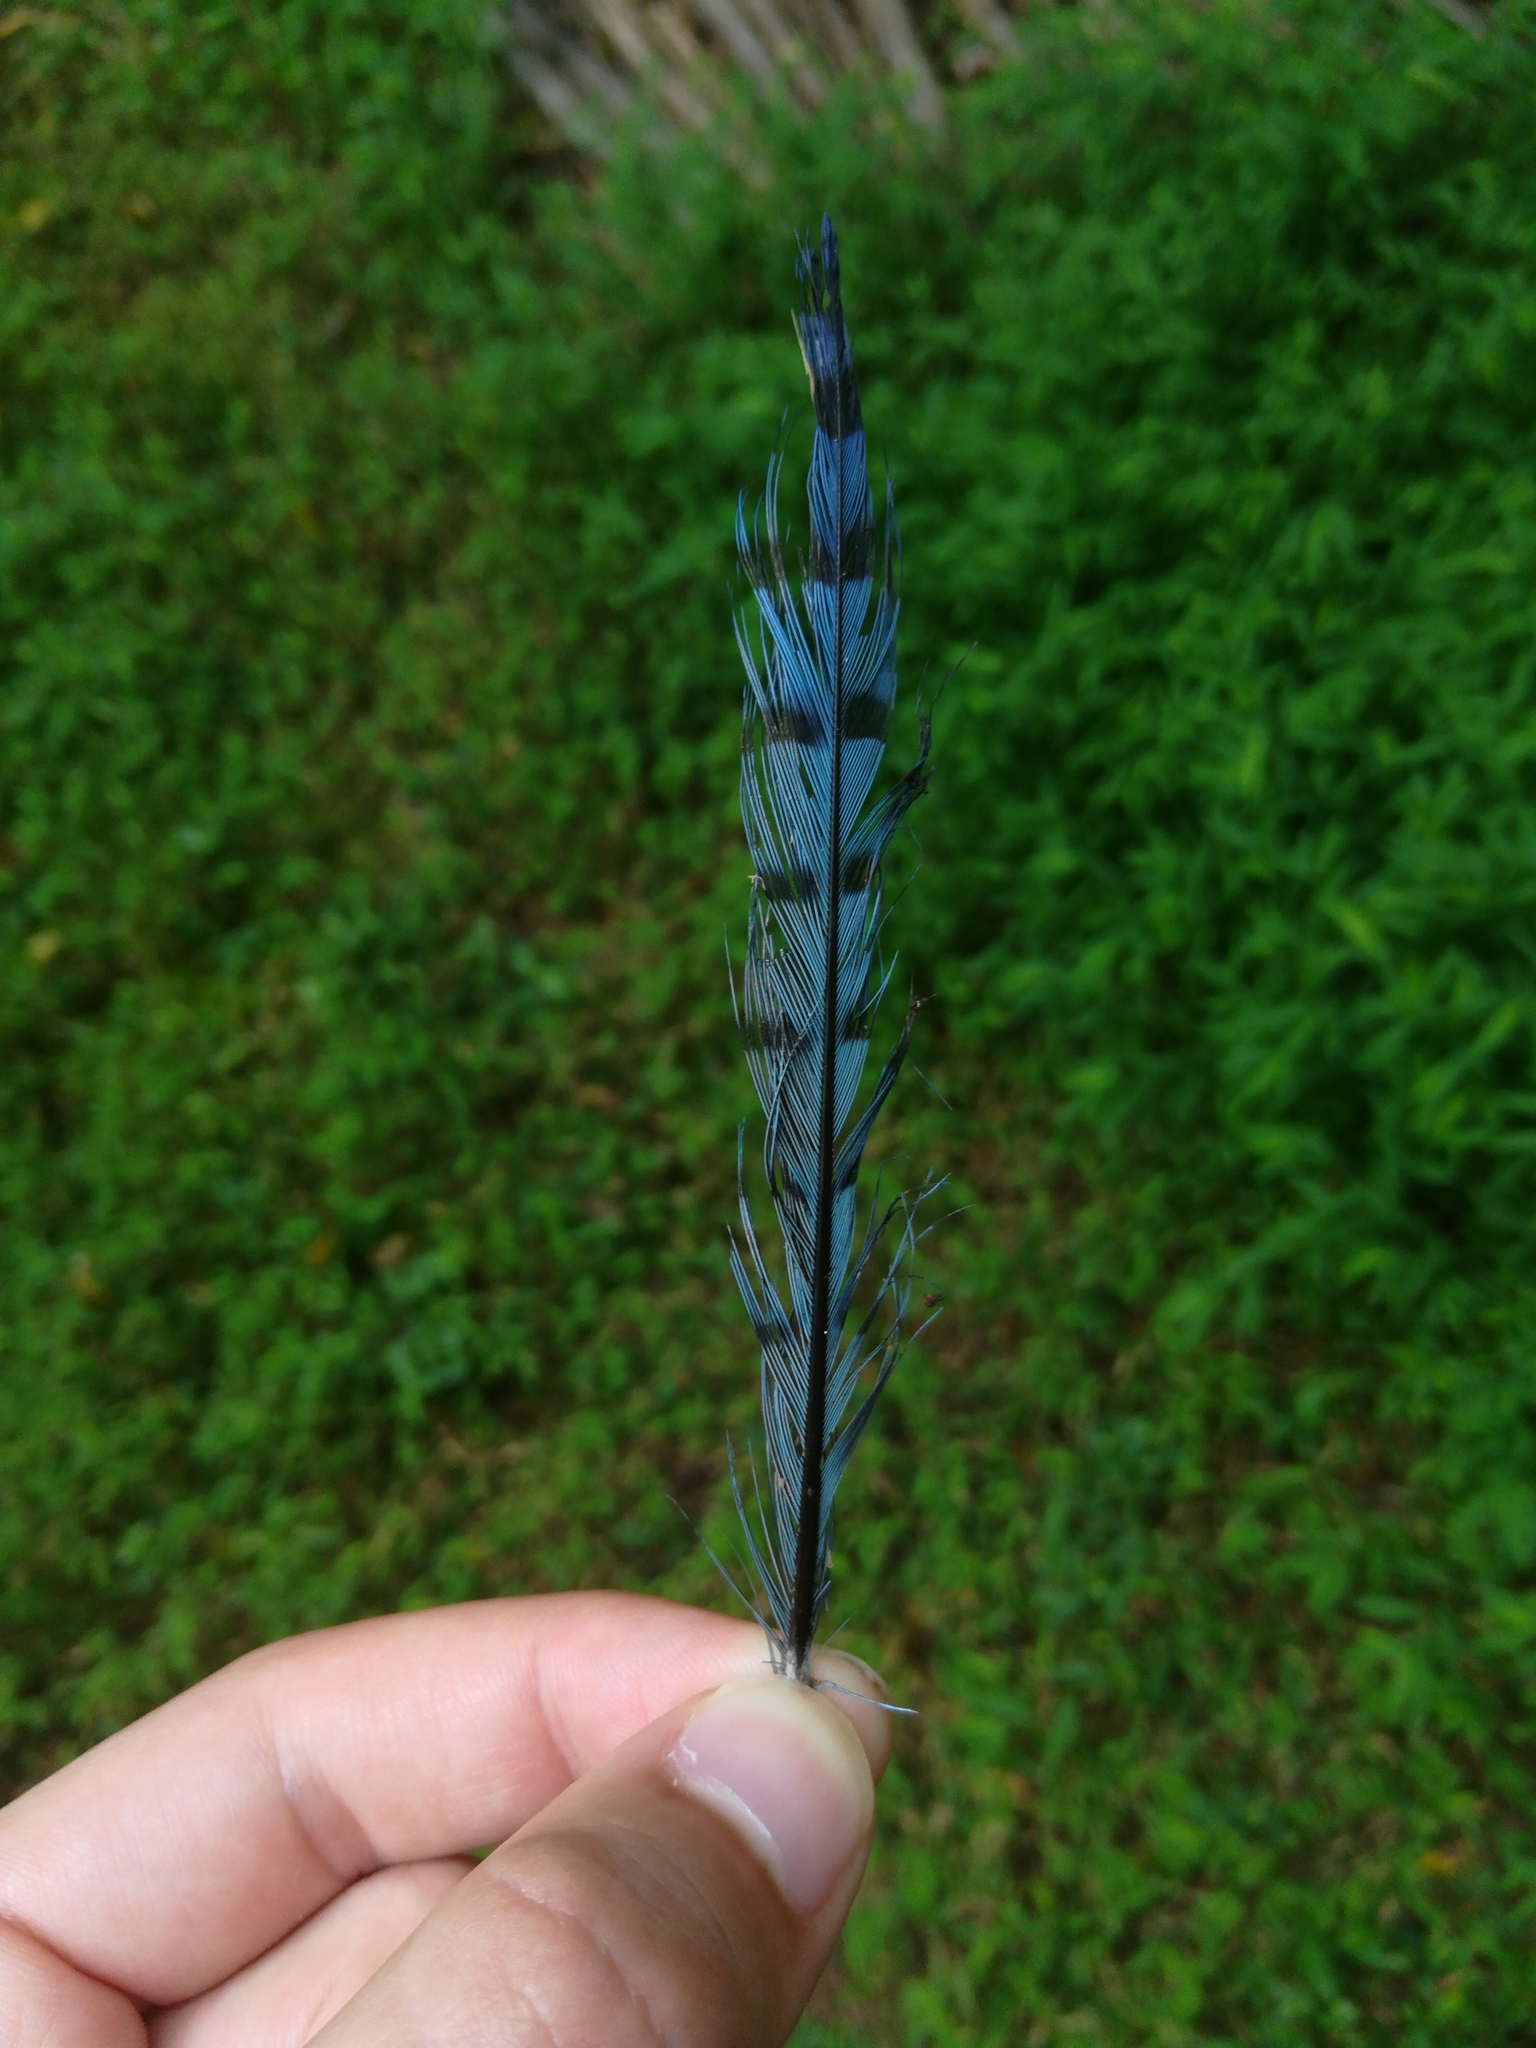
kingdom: Animalia
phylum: Chordata
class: Aves
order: Passeriformes
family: Corvidae
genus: Cyanocitta
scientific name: Cyanocitta cristata
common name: Blue jay
